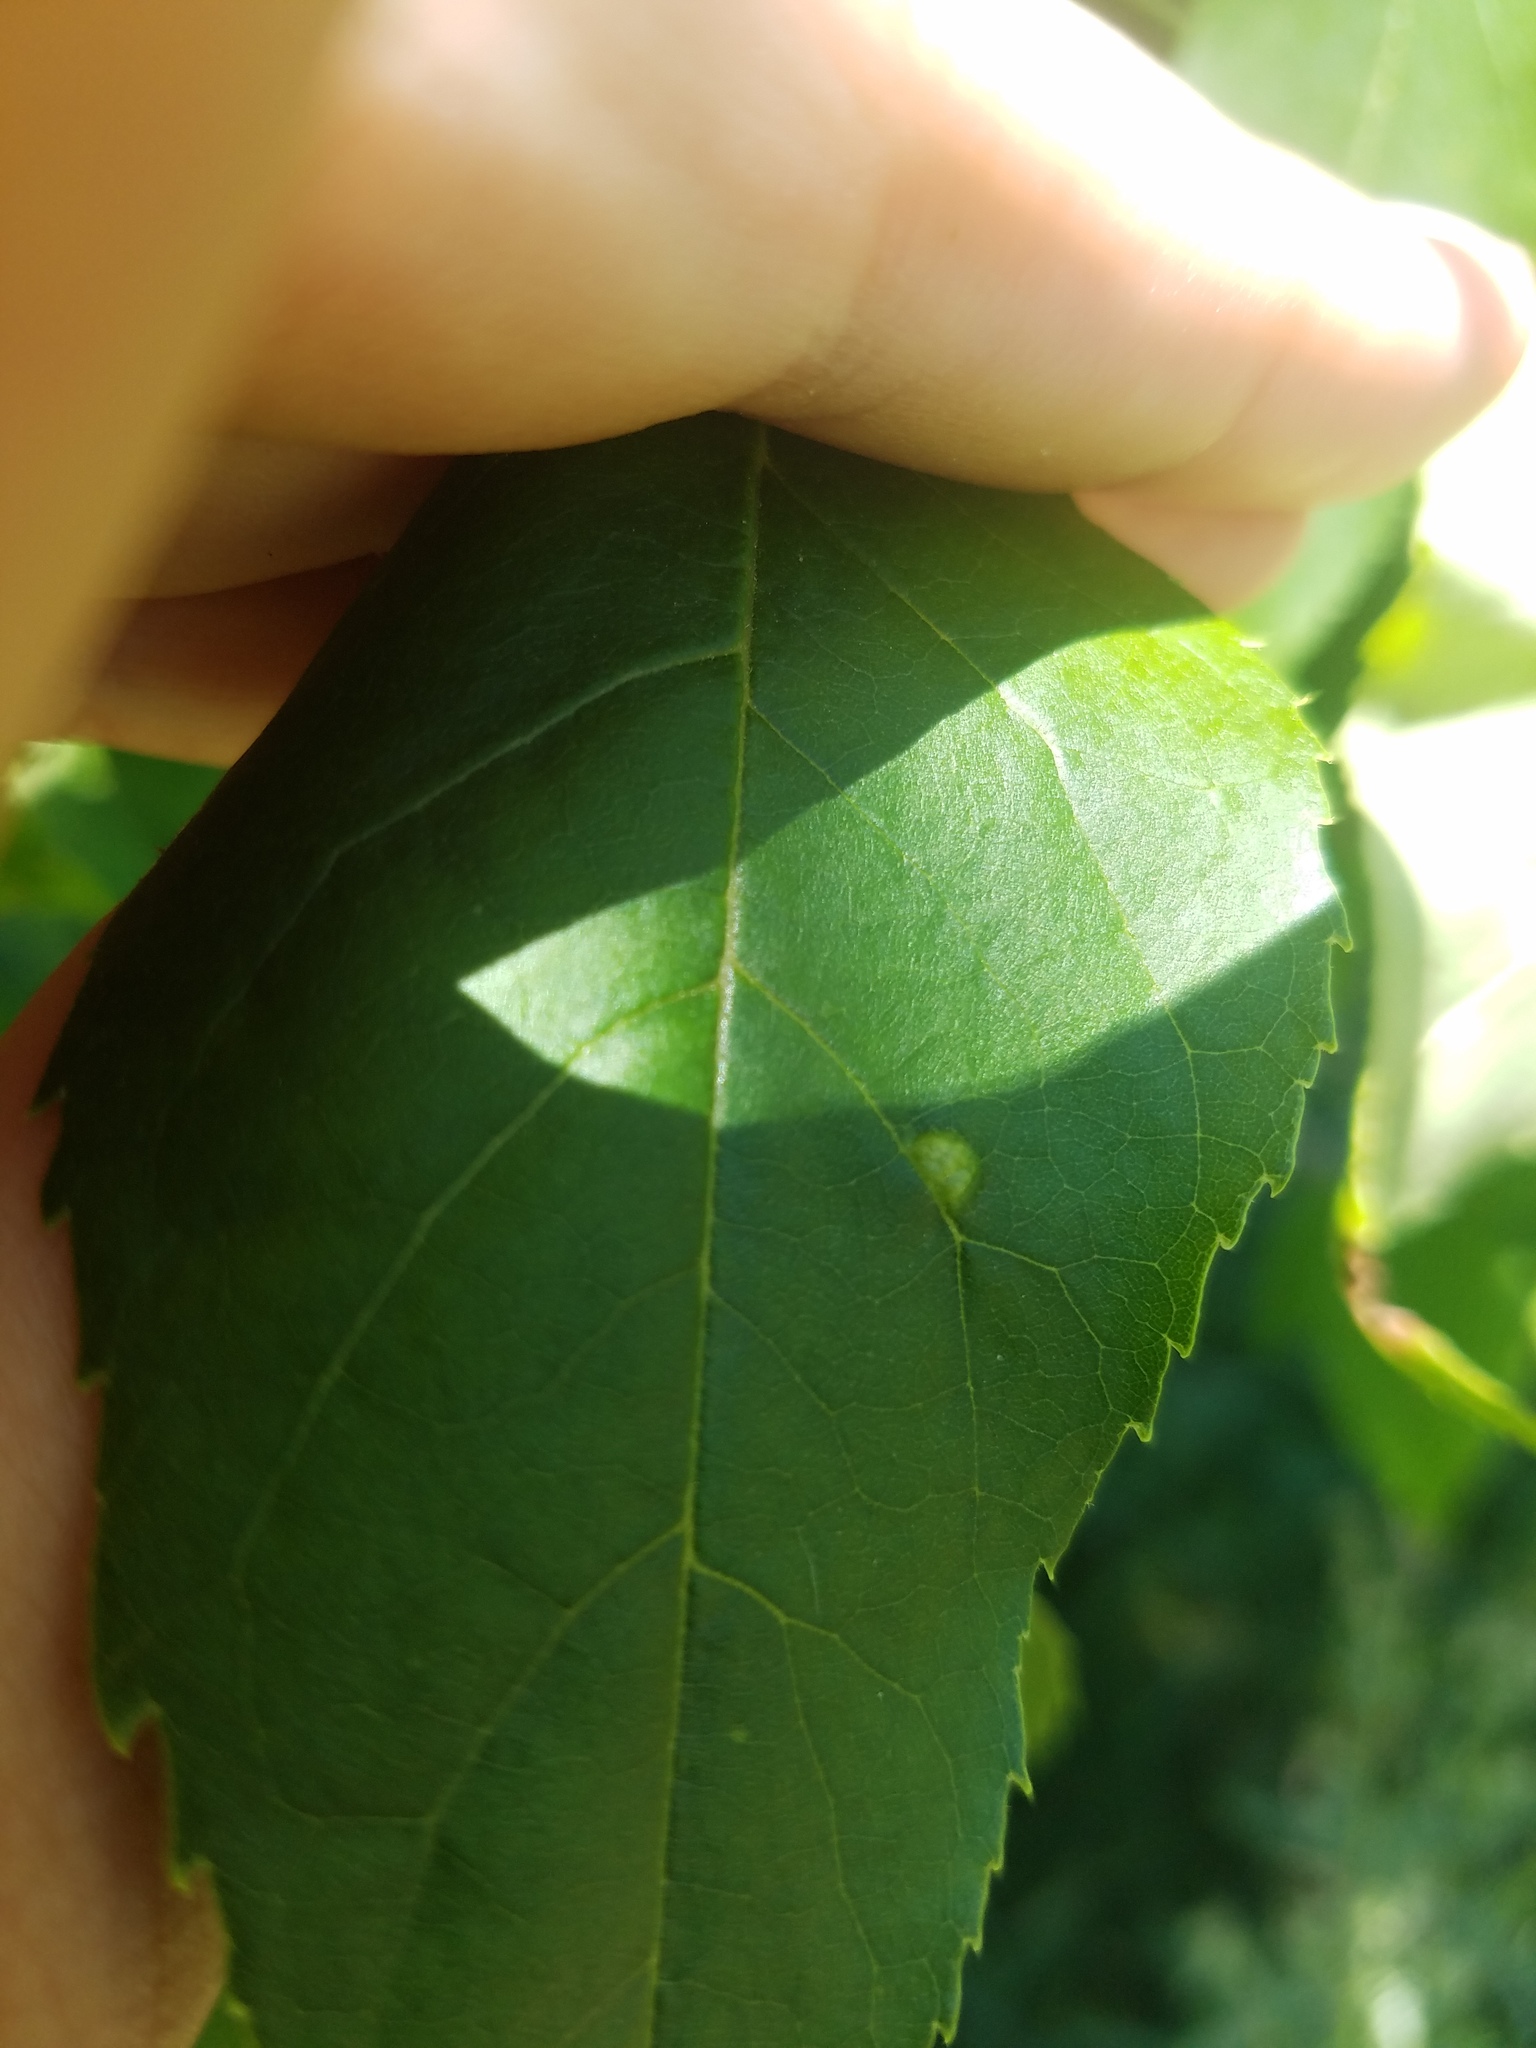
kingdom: Animalia
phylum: Arthropoda
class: Arachnida
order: Trombidiformes
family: Eriophyidae
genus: Aceria
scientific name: Aceria fraxinicola
